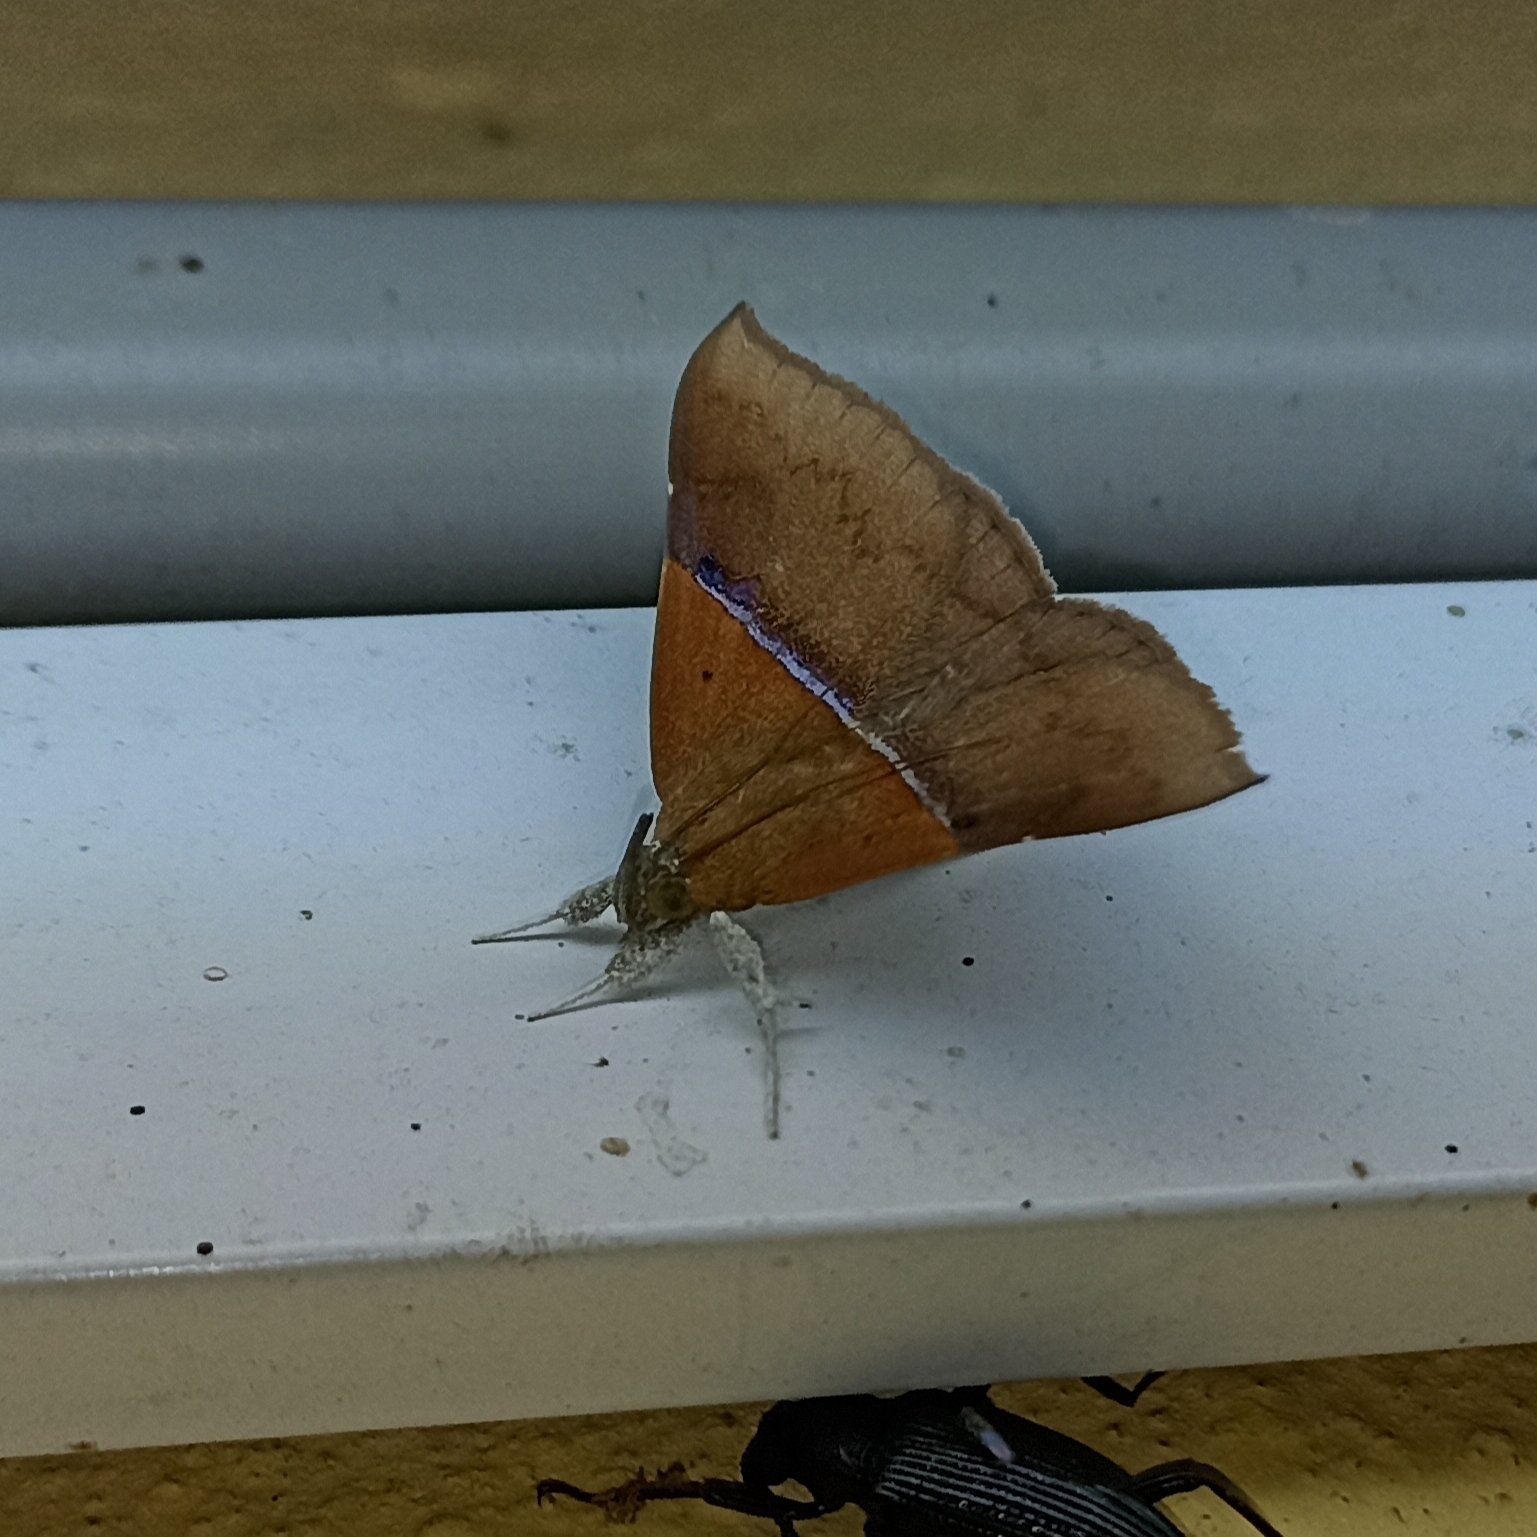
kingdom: Animalia
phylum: Arthropoda
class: Insecta
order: Lepidoptera
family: Erebidae
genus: Sympis
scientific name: Sympis rufibasis
